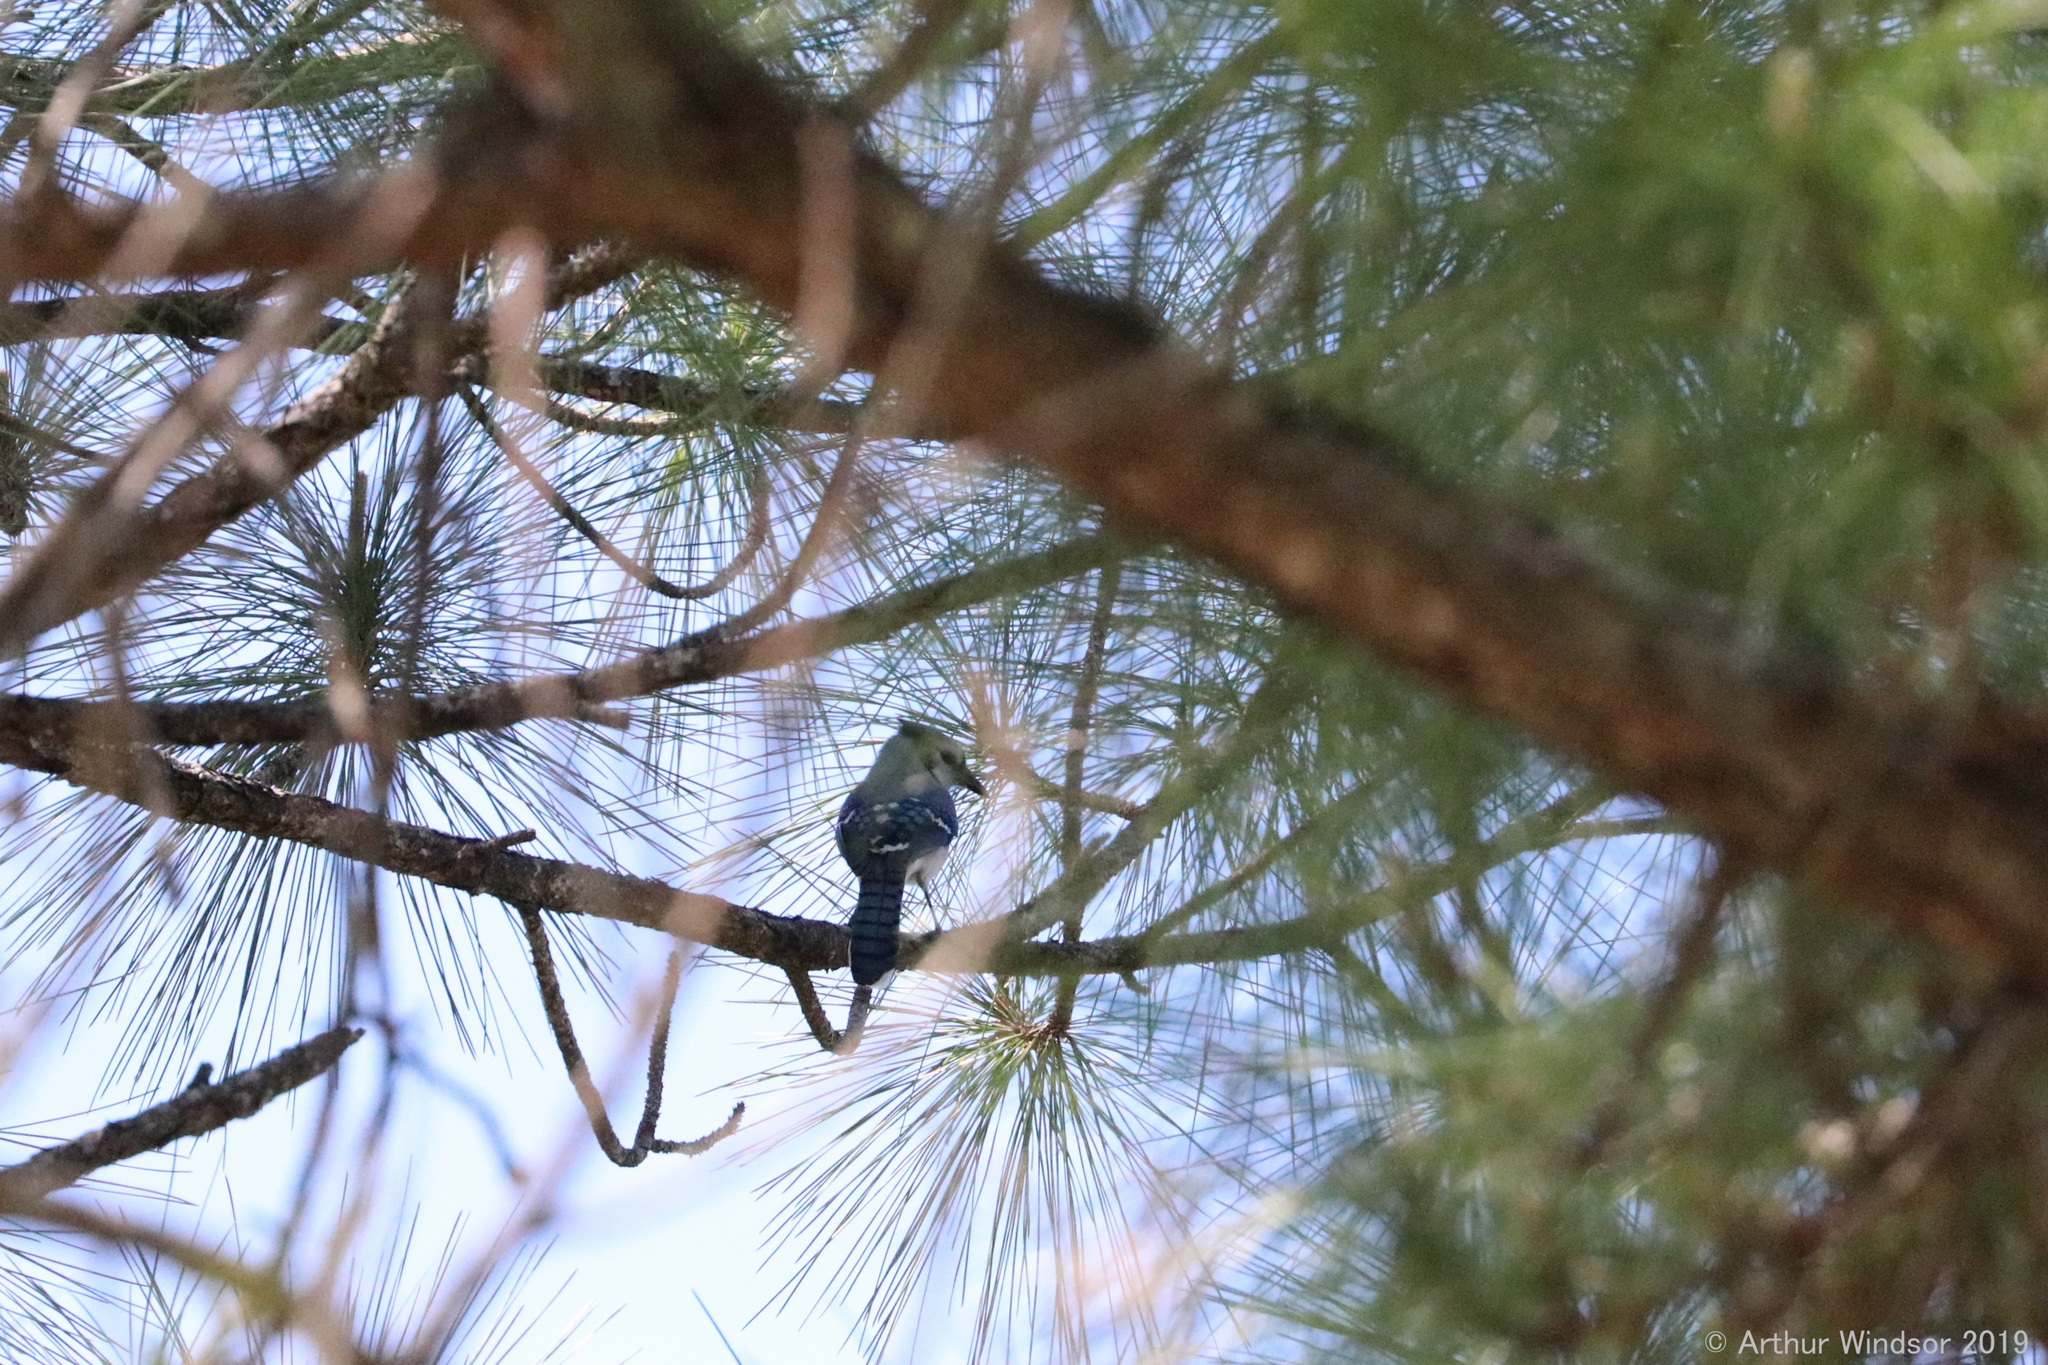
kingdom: Animalia
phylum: Chordata
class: Aves
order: Passeriformes
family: Corvidae
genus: Cyanocitta
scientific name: Cyanocitta cristata
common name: Blue jay
